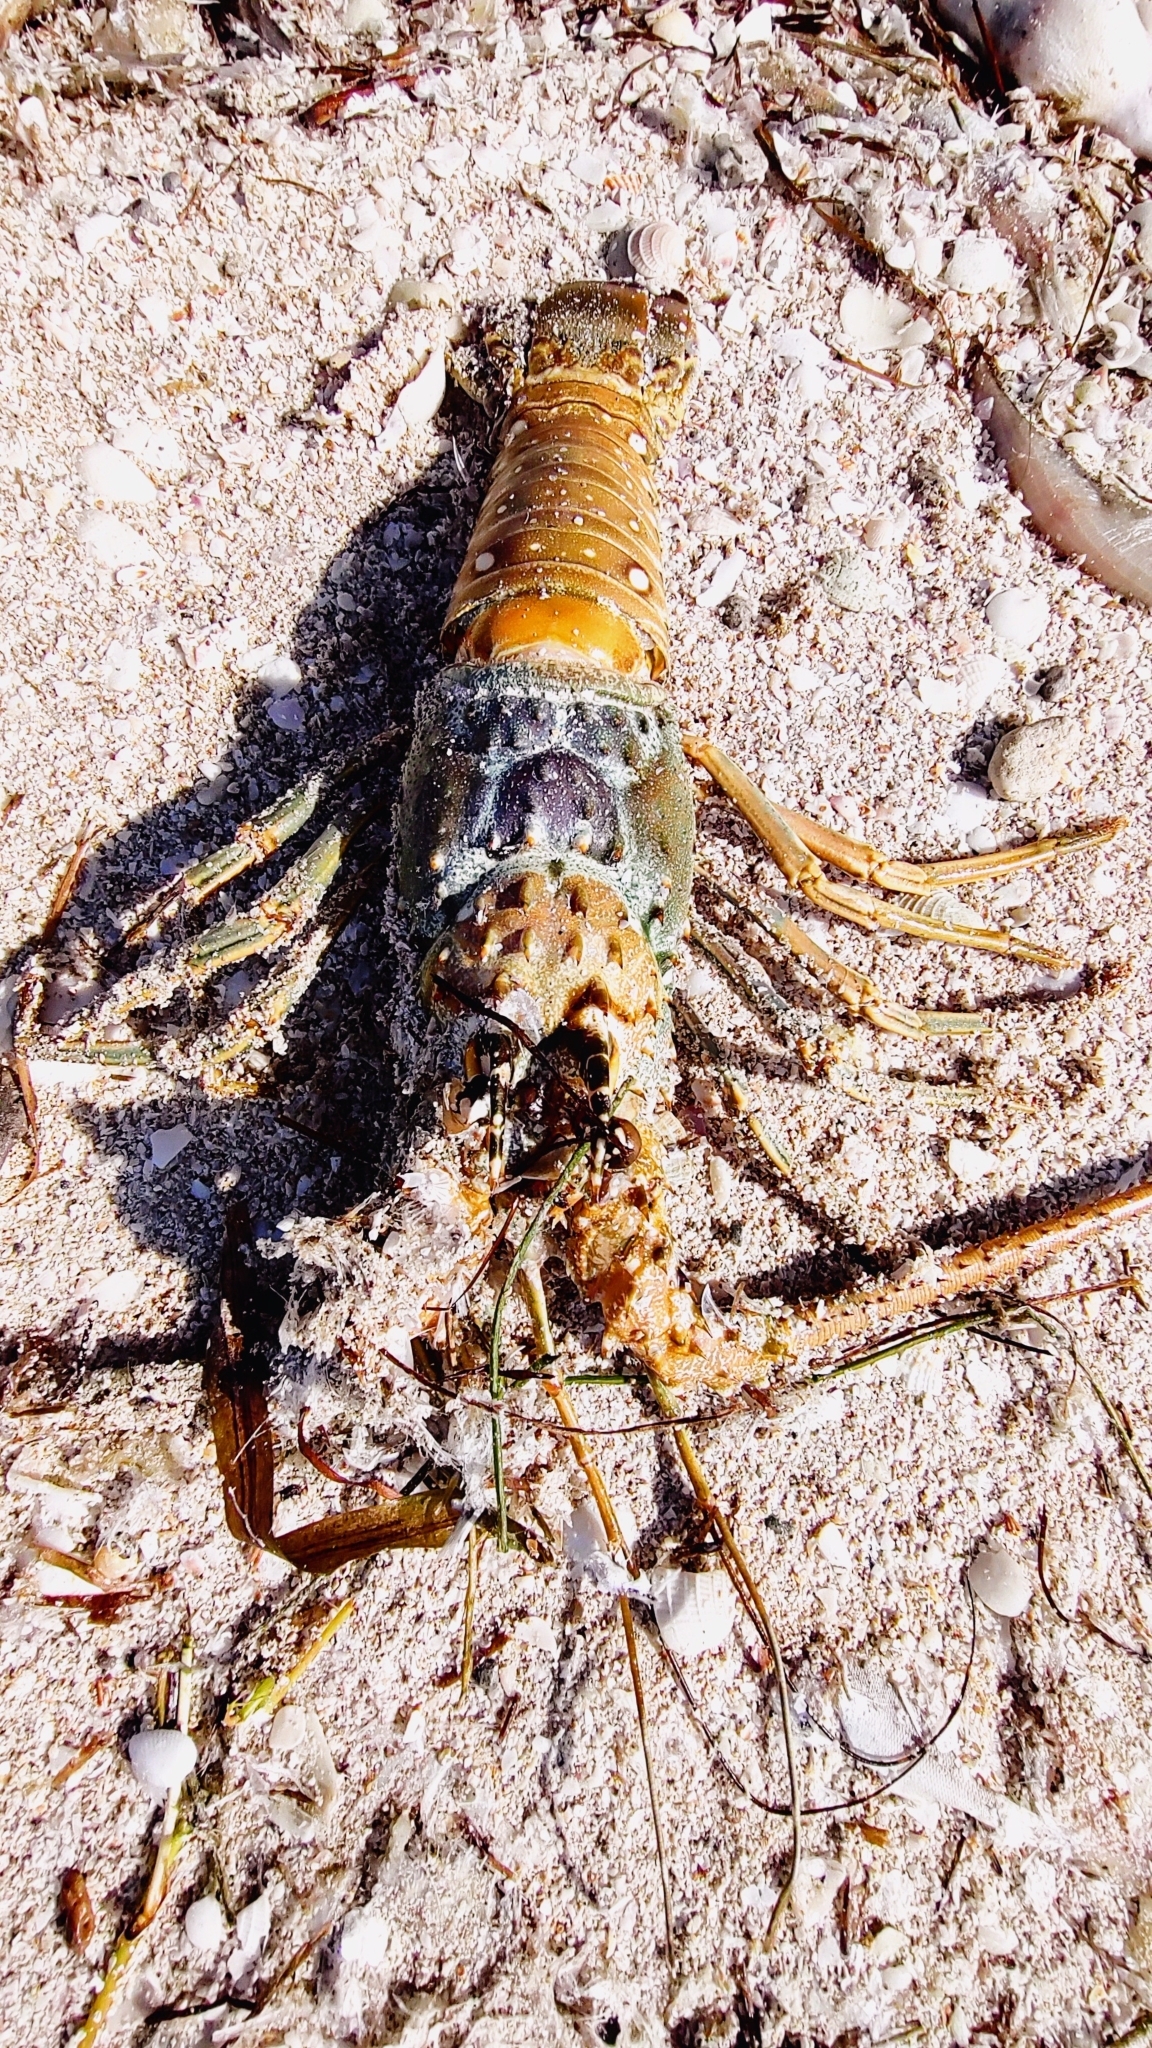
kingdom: Animalia
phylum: Arthropoda
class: Malacostraca
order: Decapoda
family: Palinuridae
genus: Panulirus
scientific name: Panulirus argus
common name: Caribbean spiny lobster
